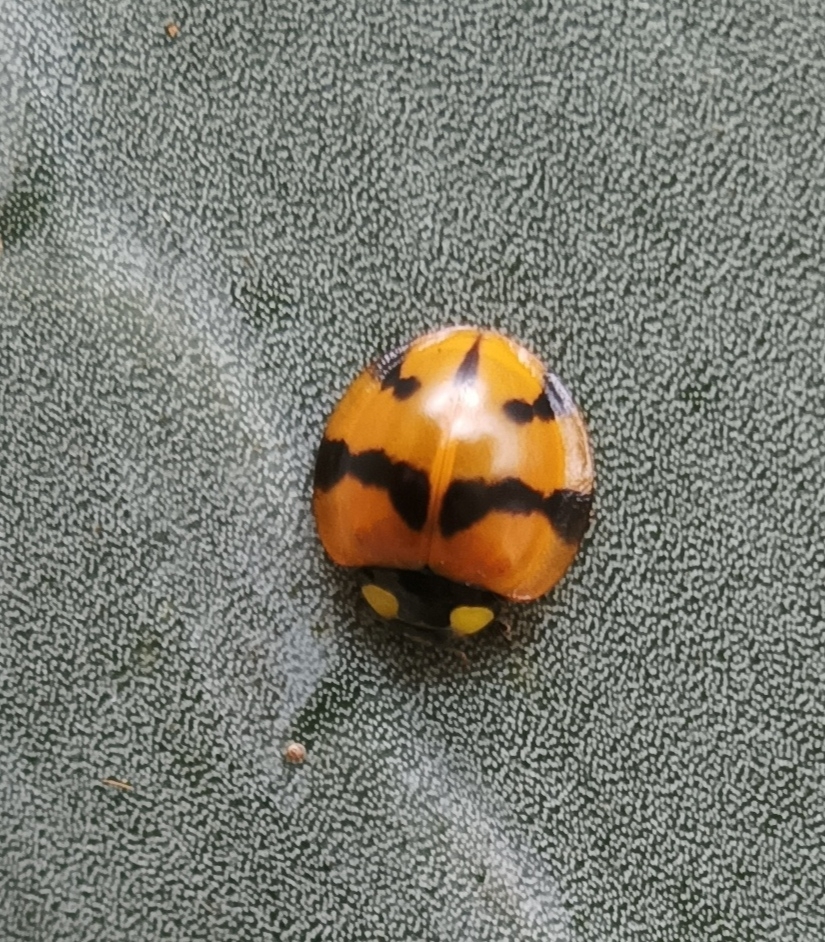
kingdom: Animalia
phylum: Arthropoda
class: Insecta
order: Coleoptera
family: Coccinellidae
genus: Neda
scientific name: Neda norrisi
